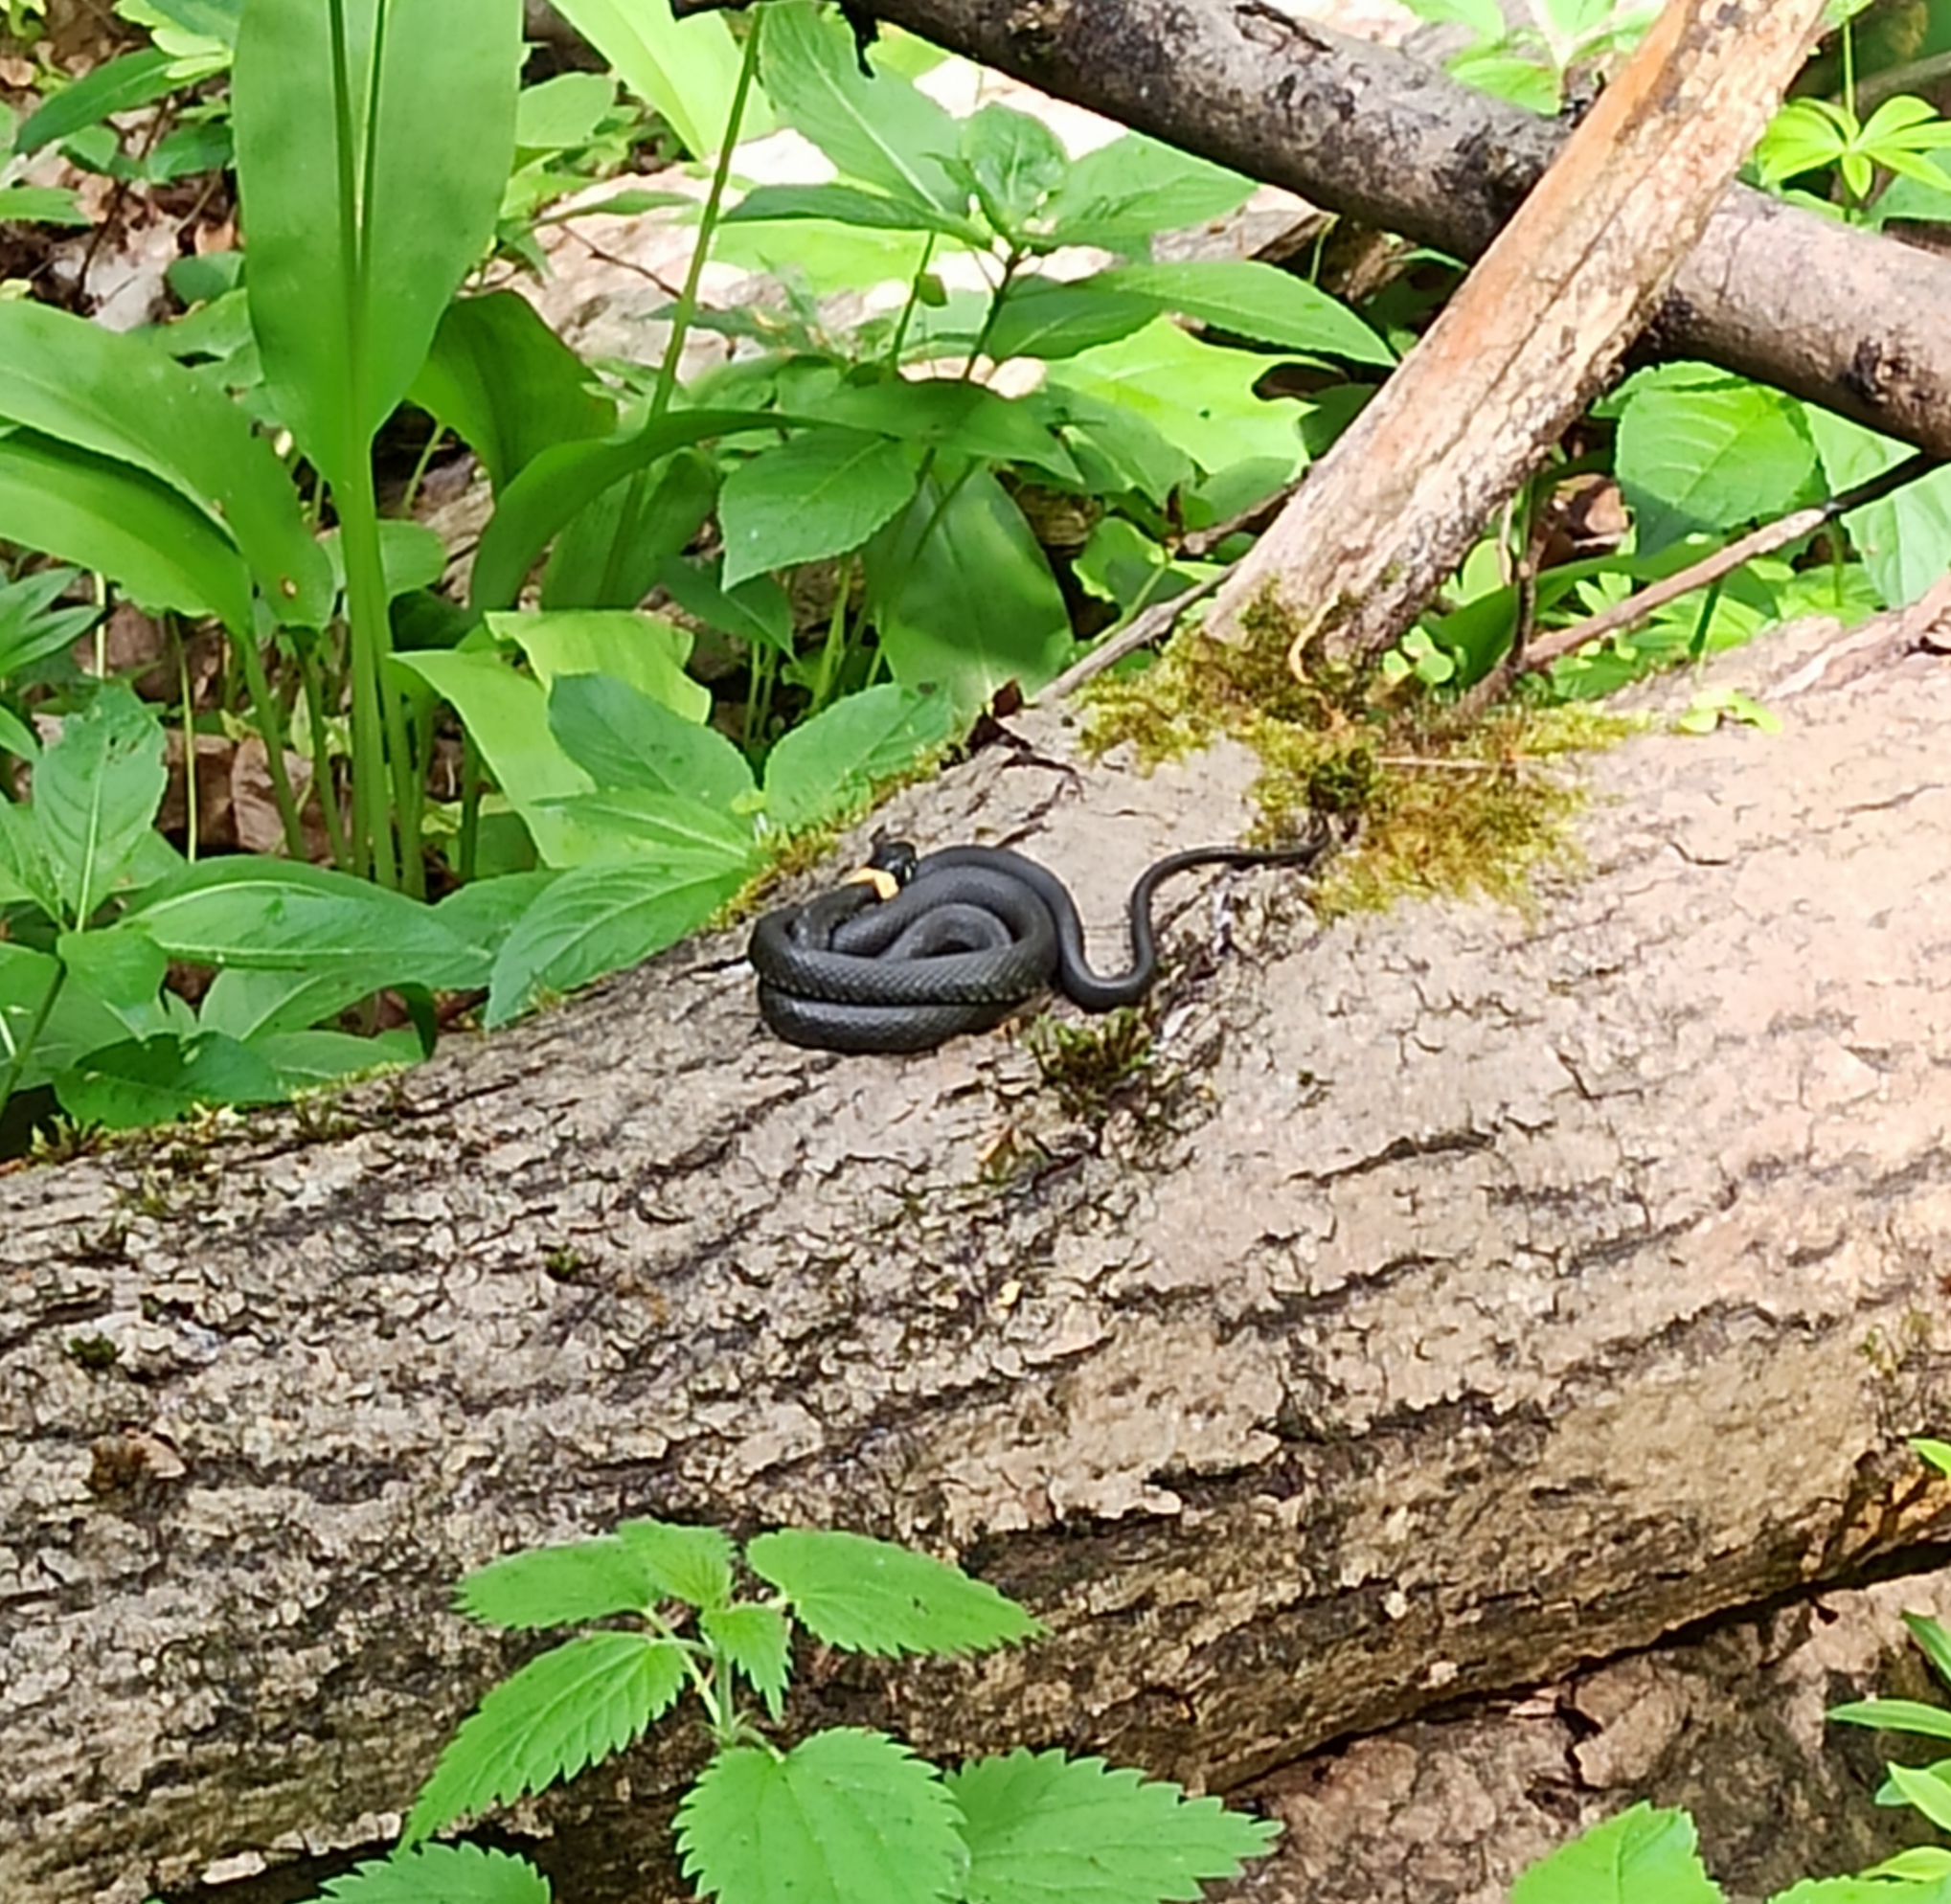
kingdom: Animalia
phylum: Chordata
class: Squamata
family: Colubridae
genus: Natrix
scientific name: Natrix natrix
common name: Grass snake
